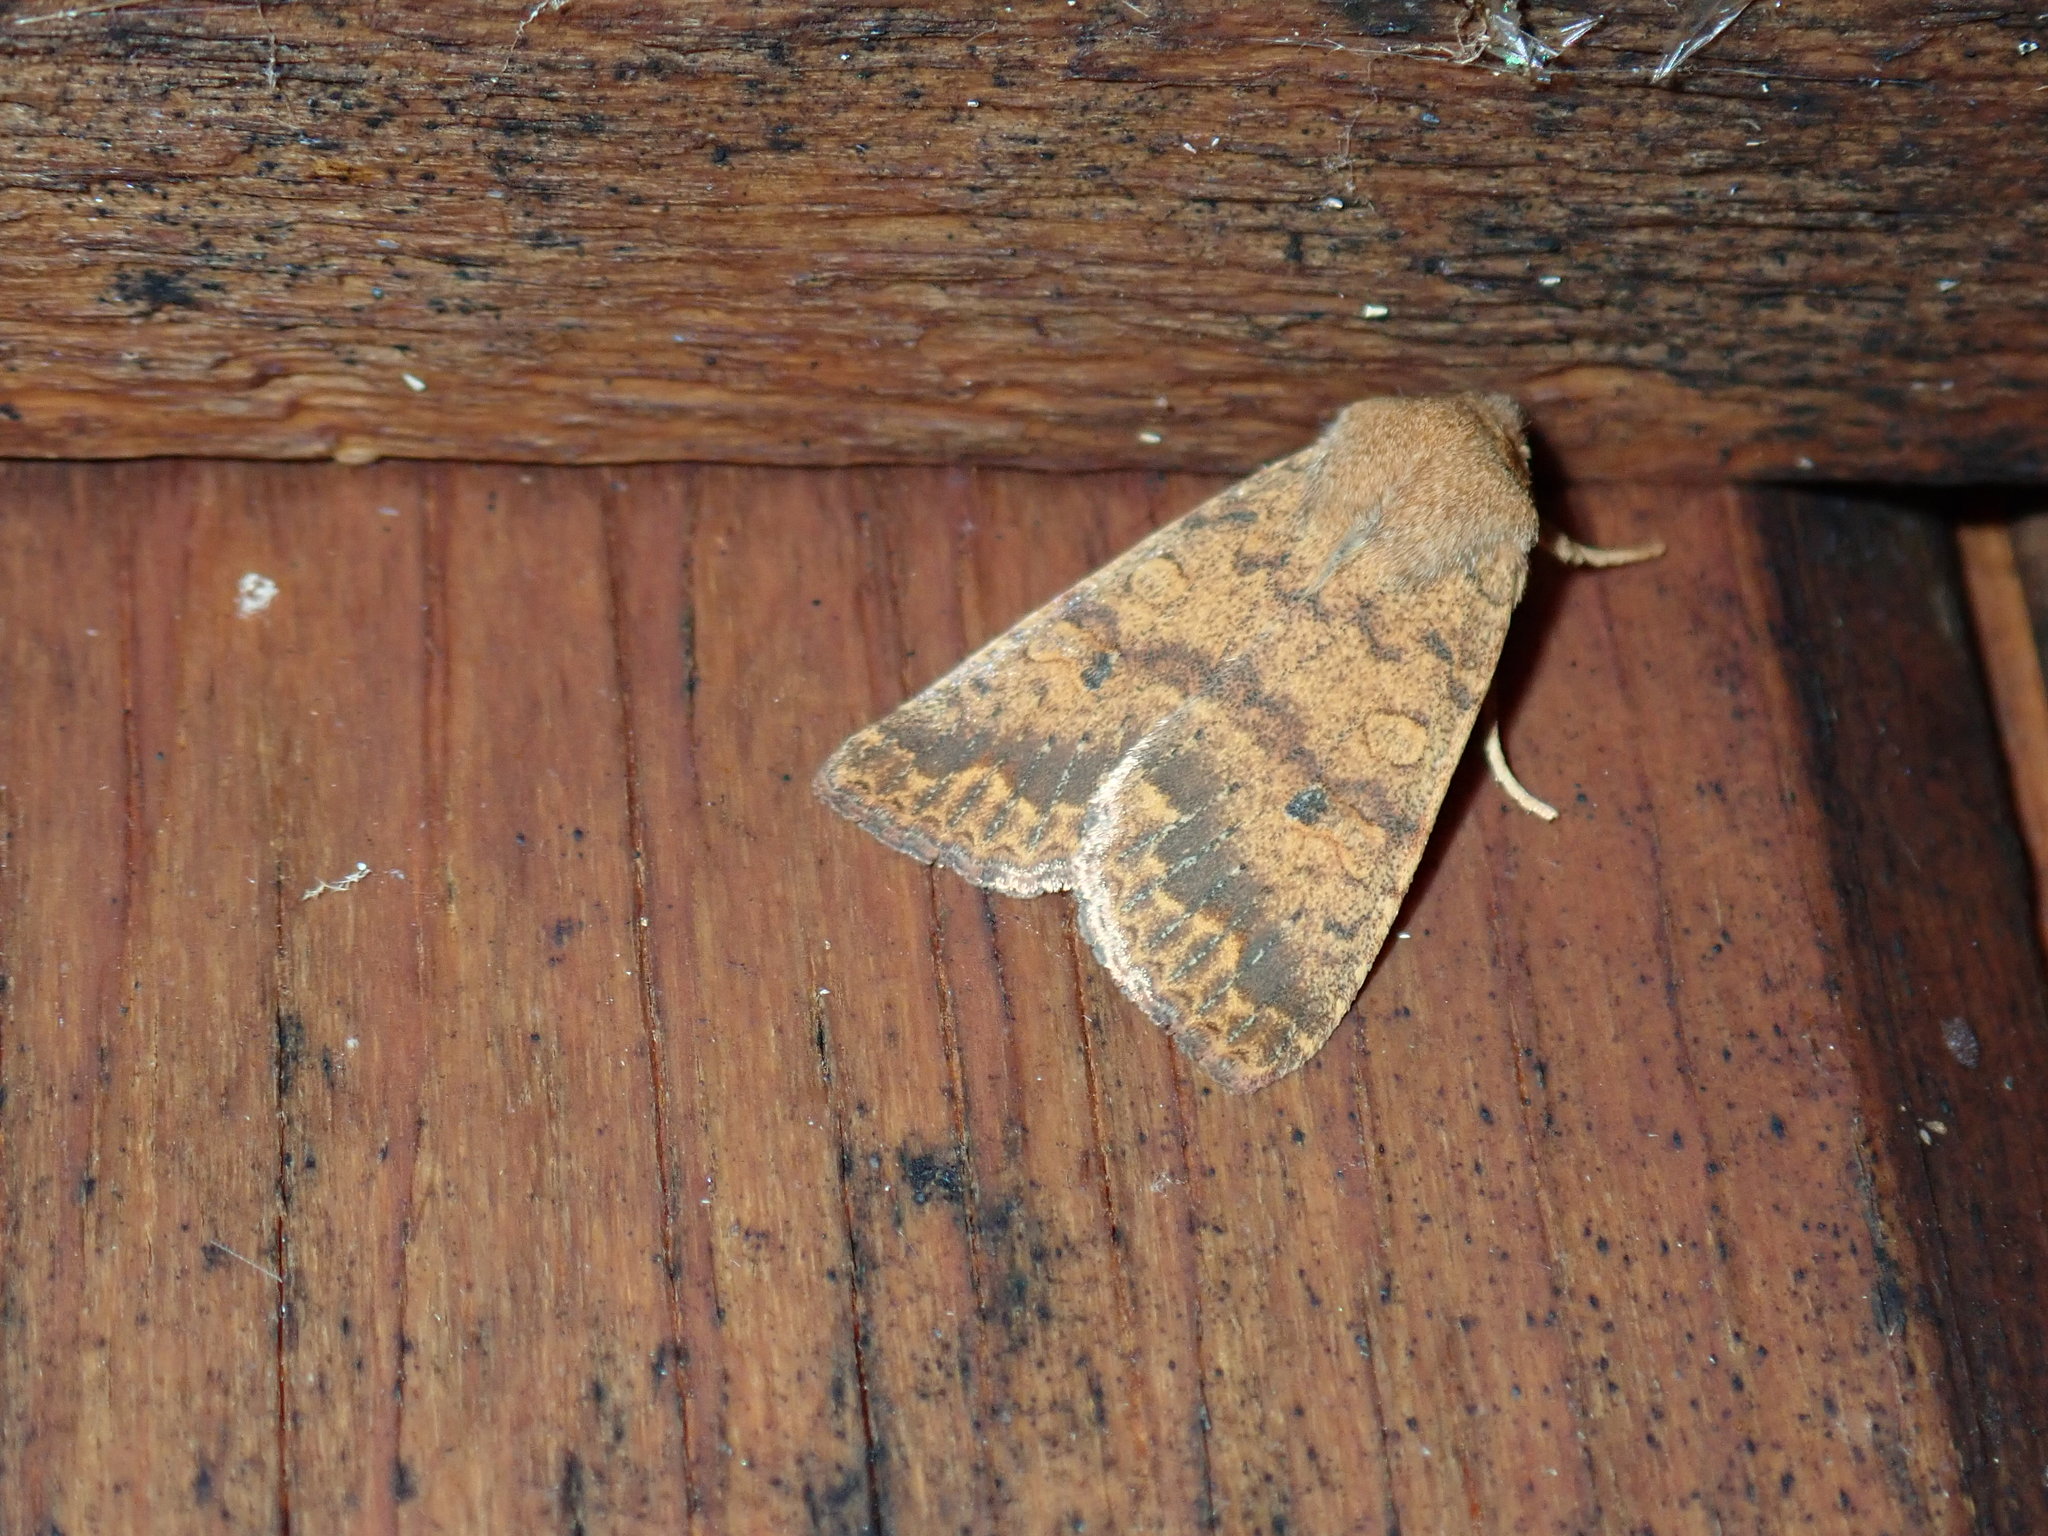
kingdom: Animalia
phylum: Arthropoda
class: Insecta
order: Lepidoptera
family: Noctuidae
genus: Agrochola
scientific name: Agrochola bicolorago
